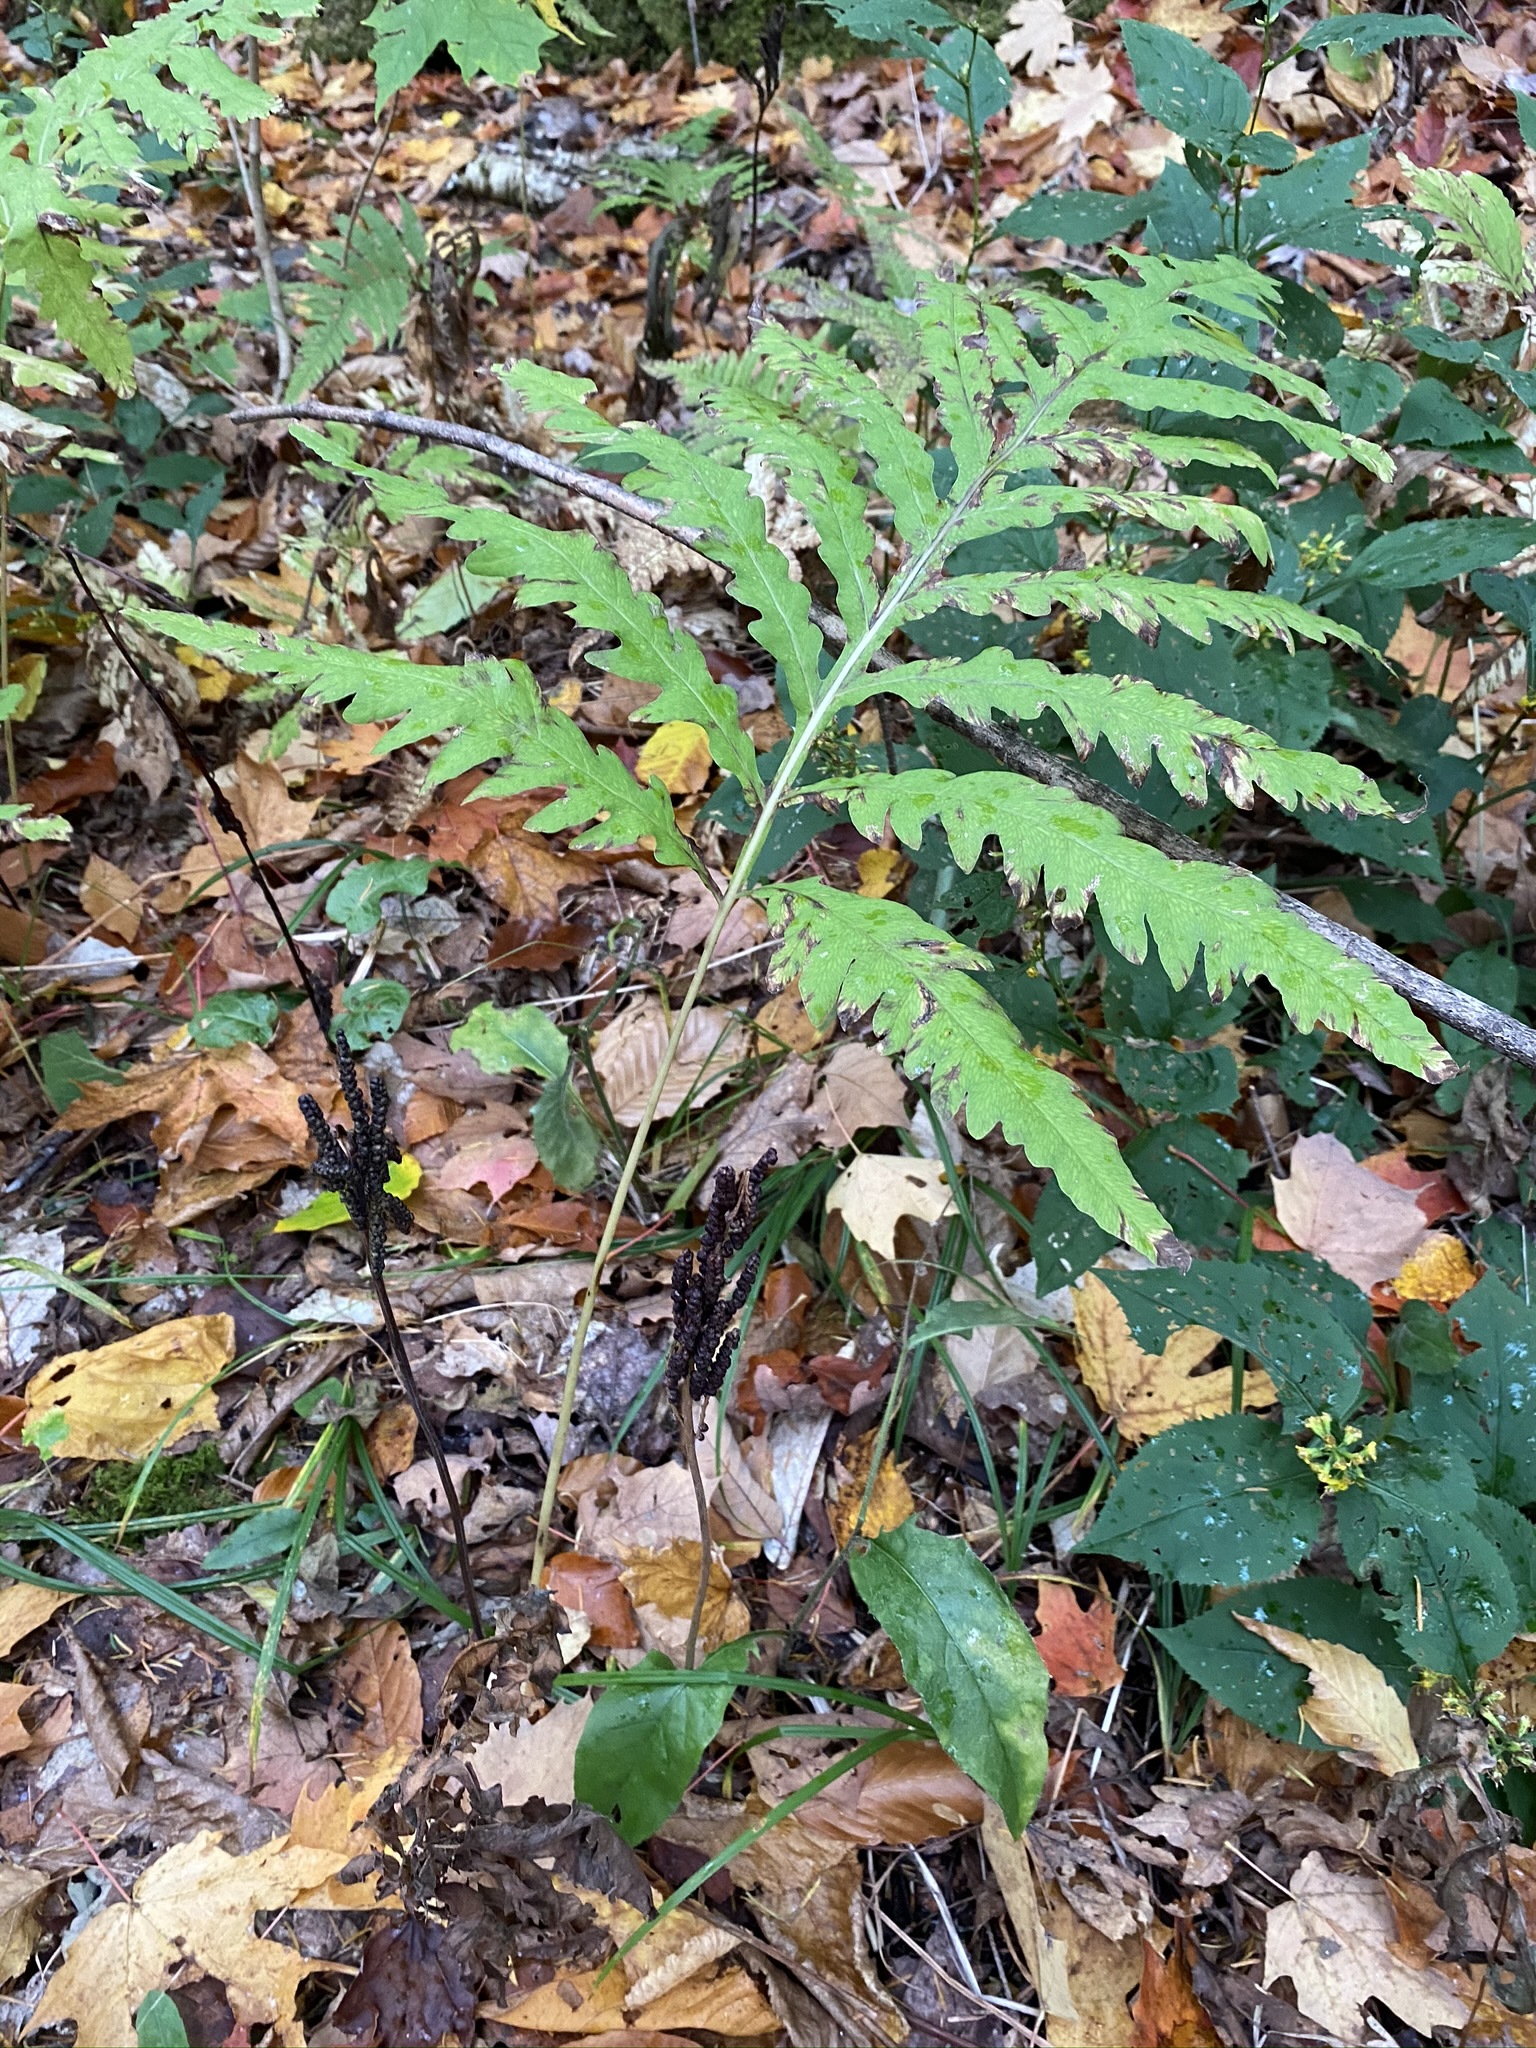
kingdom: Plantae
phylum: Tracheophyta
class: Polypodiopsida
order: Polypodiales
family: Onocleaceae
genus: Onoclea
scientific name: Onoclea sensibilis
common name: Sensitive fern
